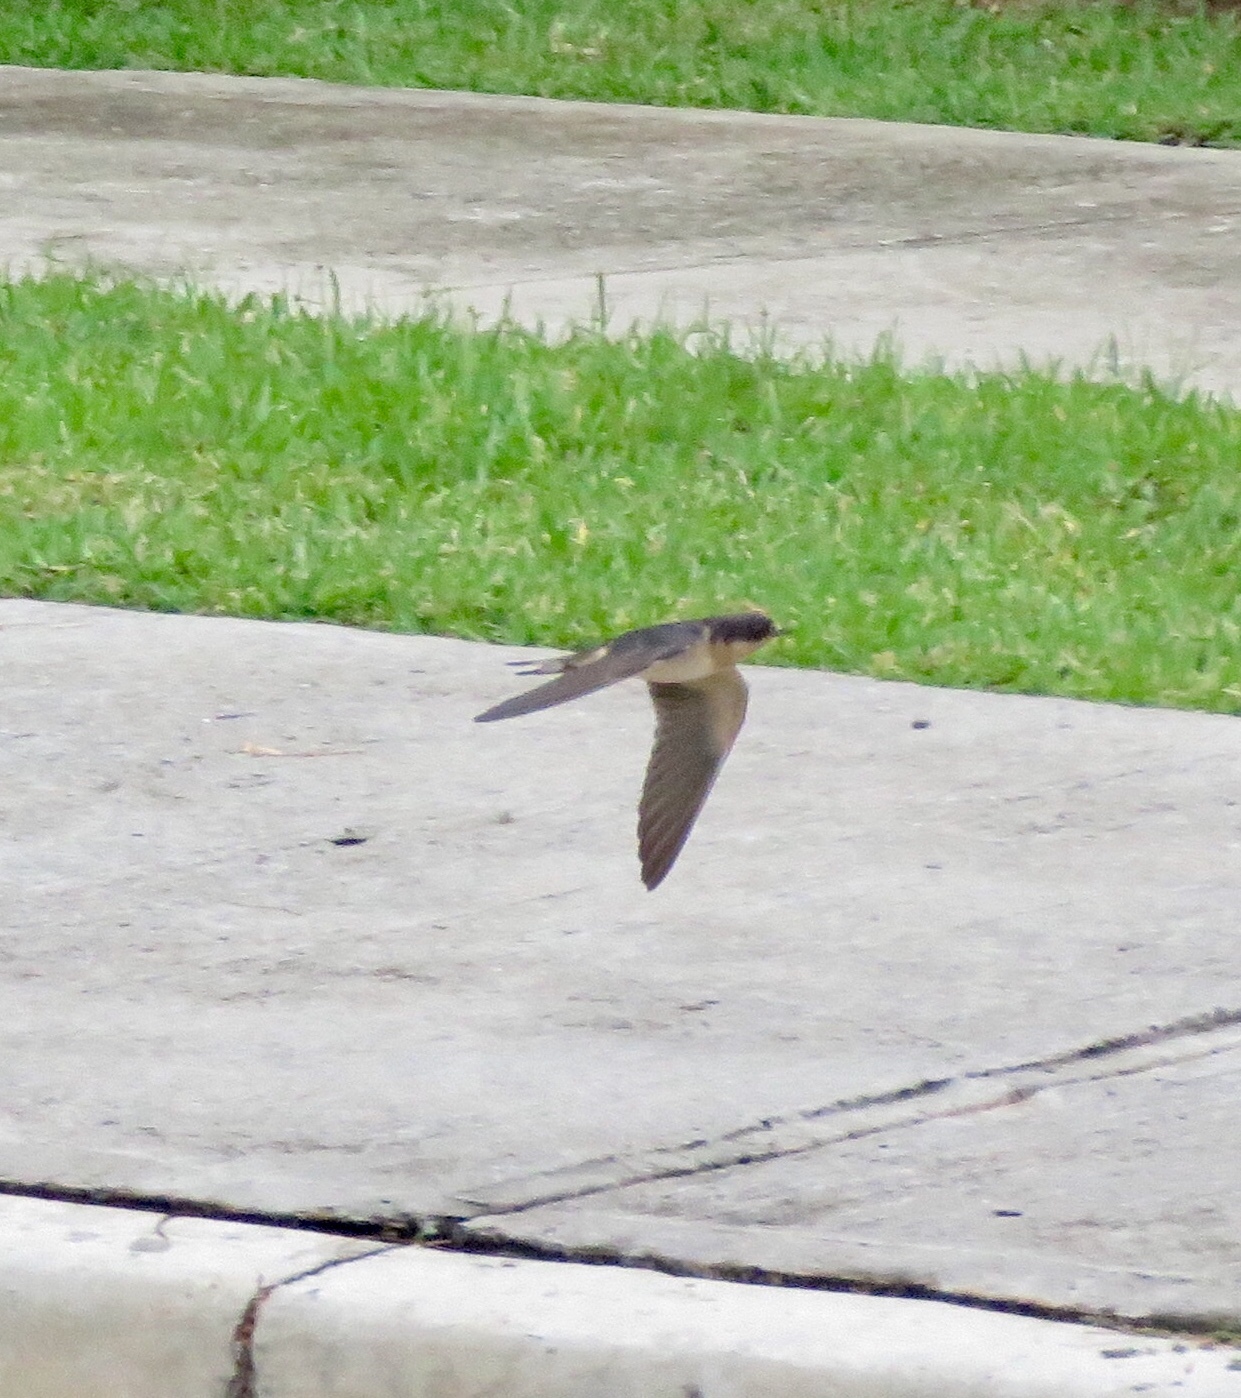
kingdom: Animalia
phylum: Chordata
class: Aves
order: Passeriformes
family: Hirundinidae
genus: Hirundo
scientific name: Hirundo rustica
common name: Barn swallow
